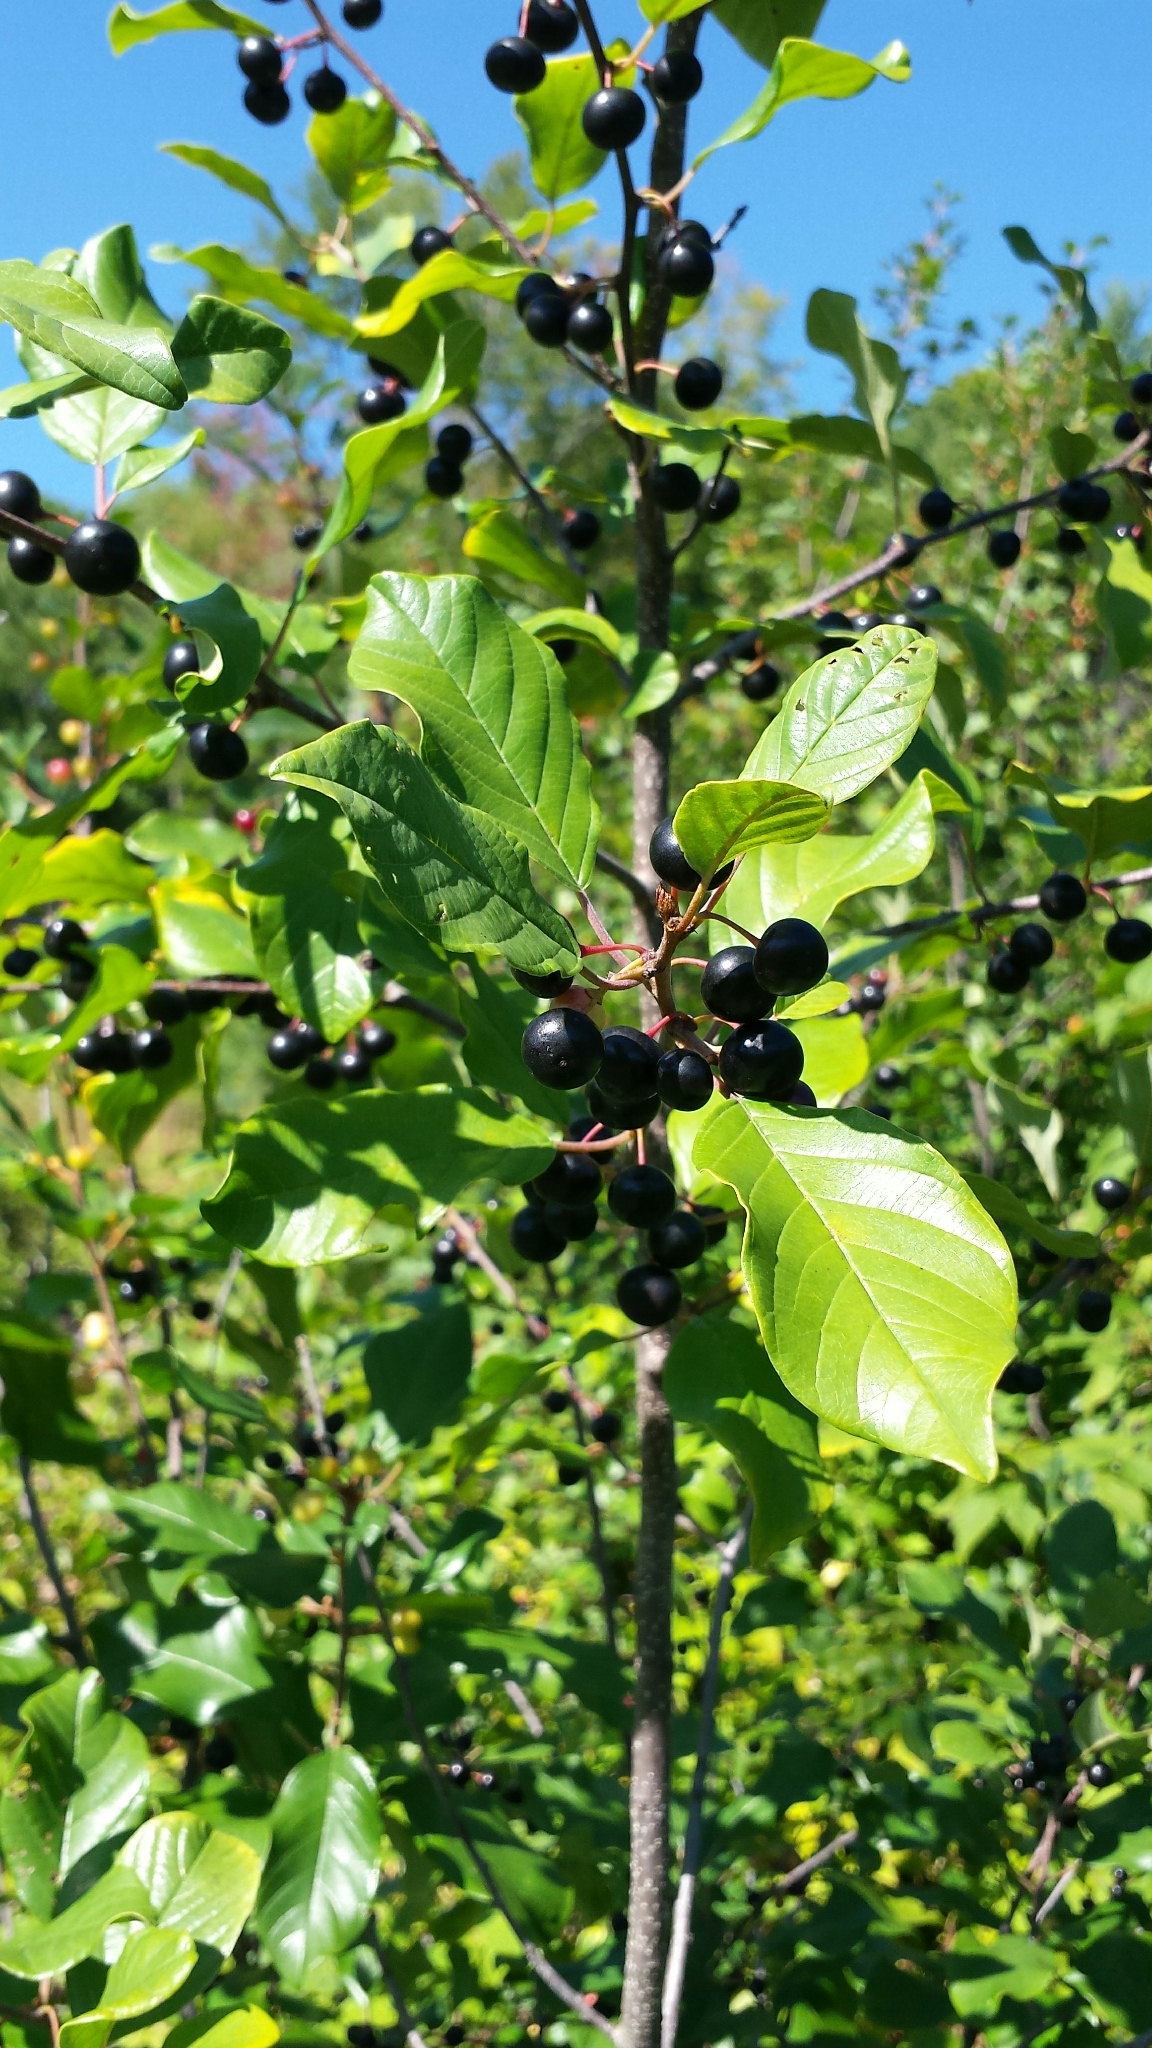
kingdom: Plantae
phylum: Tracheophyta
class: Magnoliopsida
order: Rosales
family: Rhamnaceae
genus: Frangula
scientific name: Frangula alnus
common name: Alder buckthorn
